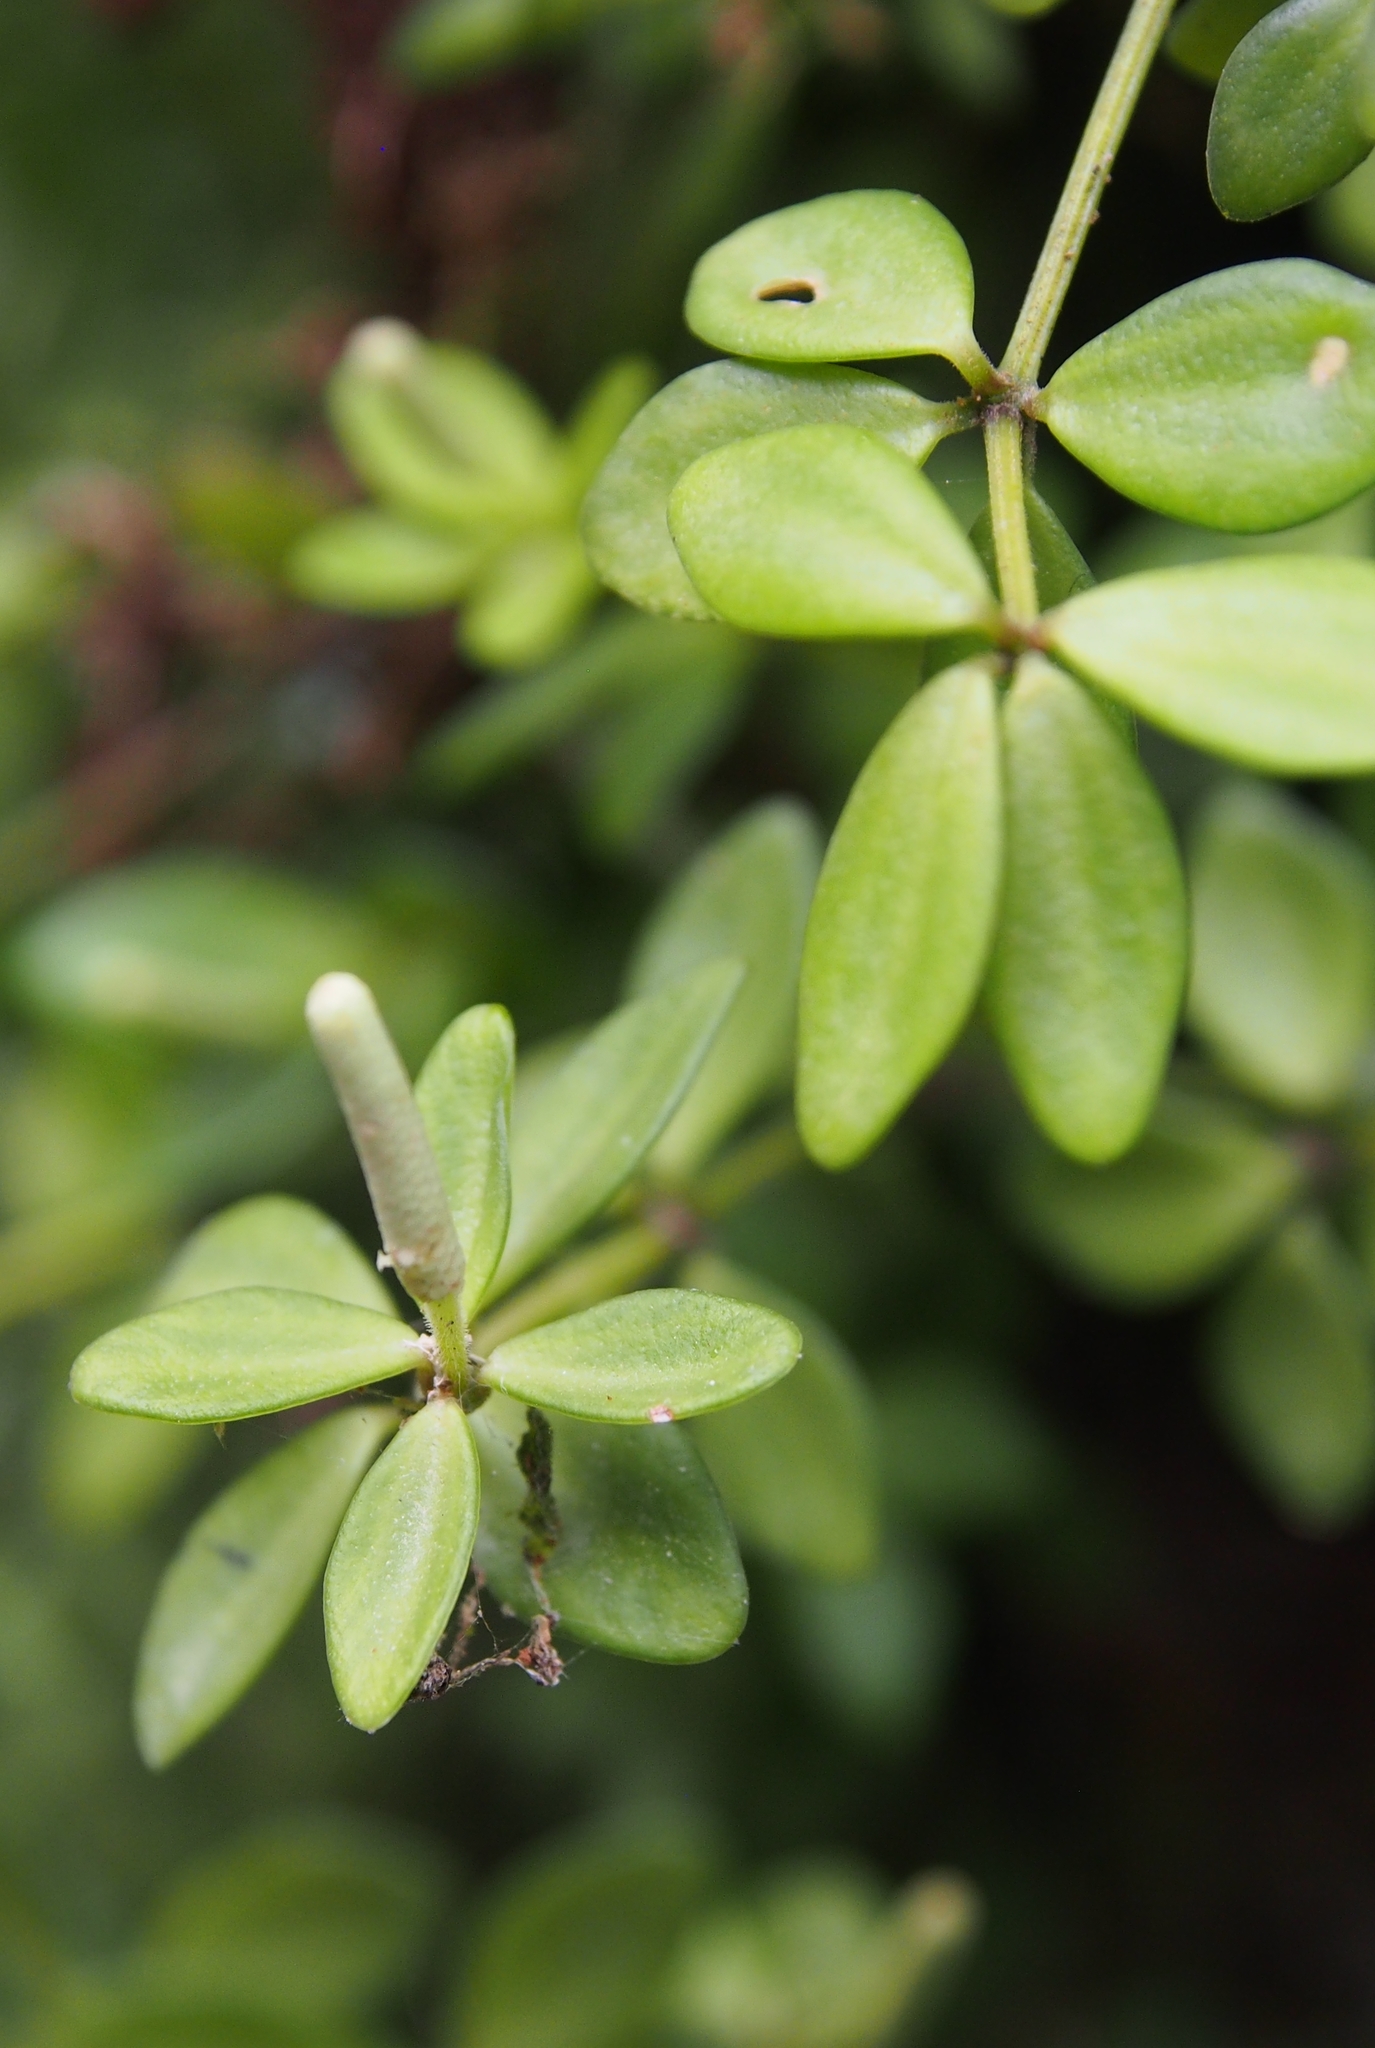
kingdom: Plantae
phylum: Tracheophyta
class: Magnoliopsida
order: Piperales
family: Piperaceae
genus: Peperomia
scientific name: Peperomia tetraphylla
